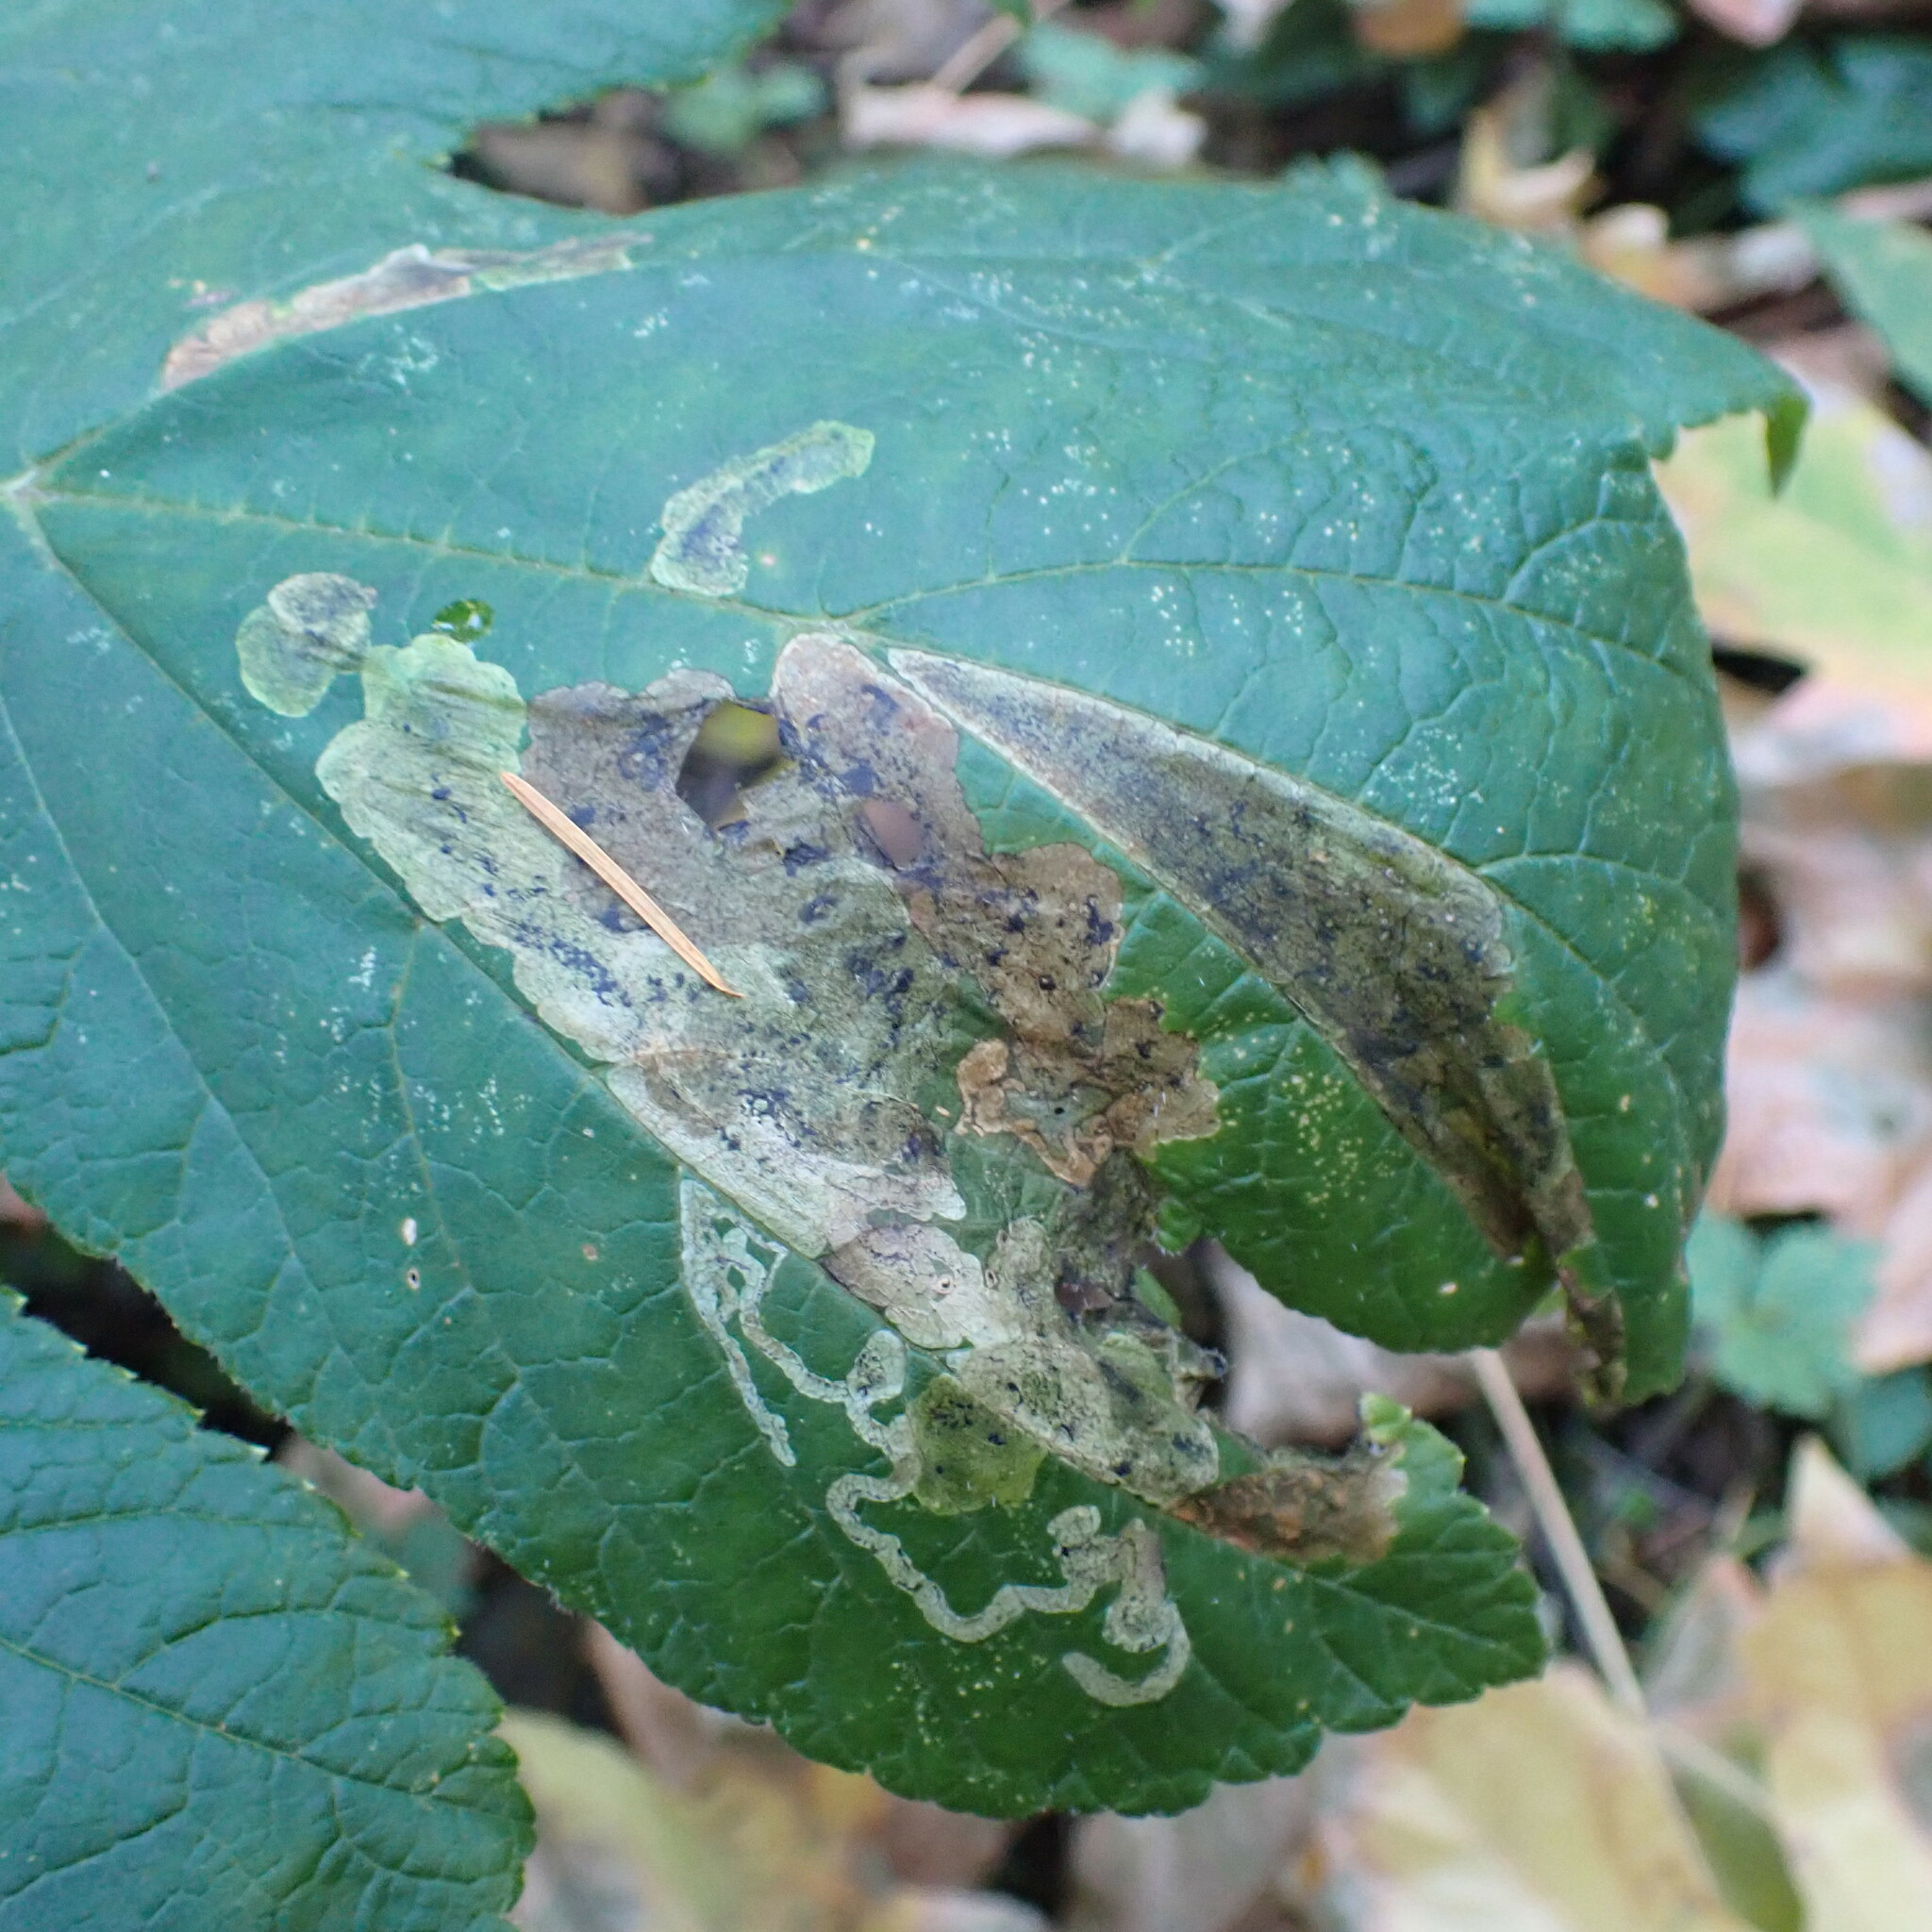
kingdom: Animalia
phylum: Arthropoda
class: Insecta
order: Diptera
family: Tephritidae
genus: Euleia
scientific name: Euleia fratria
